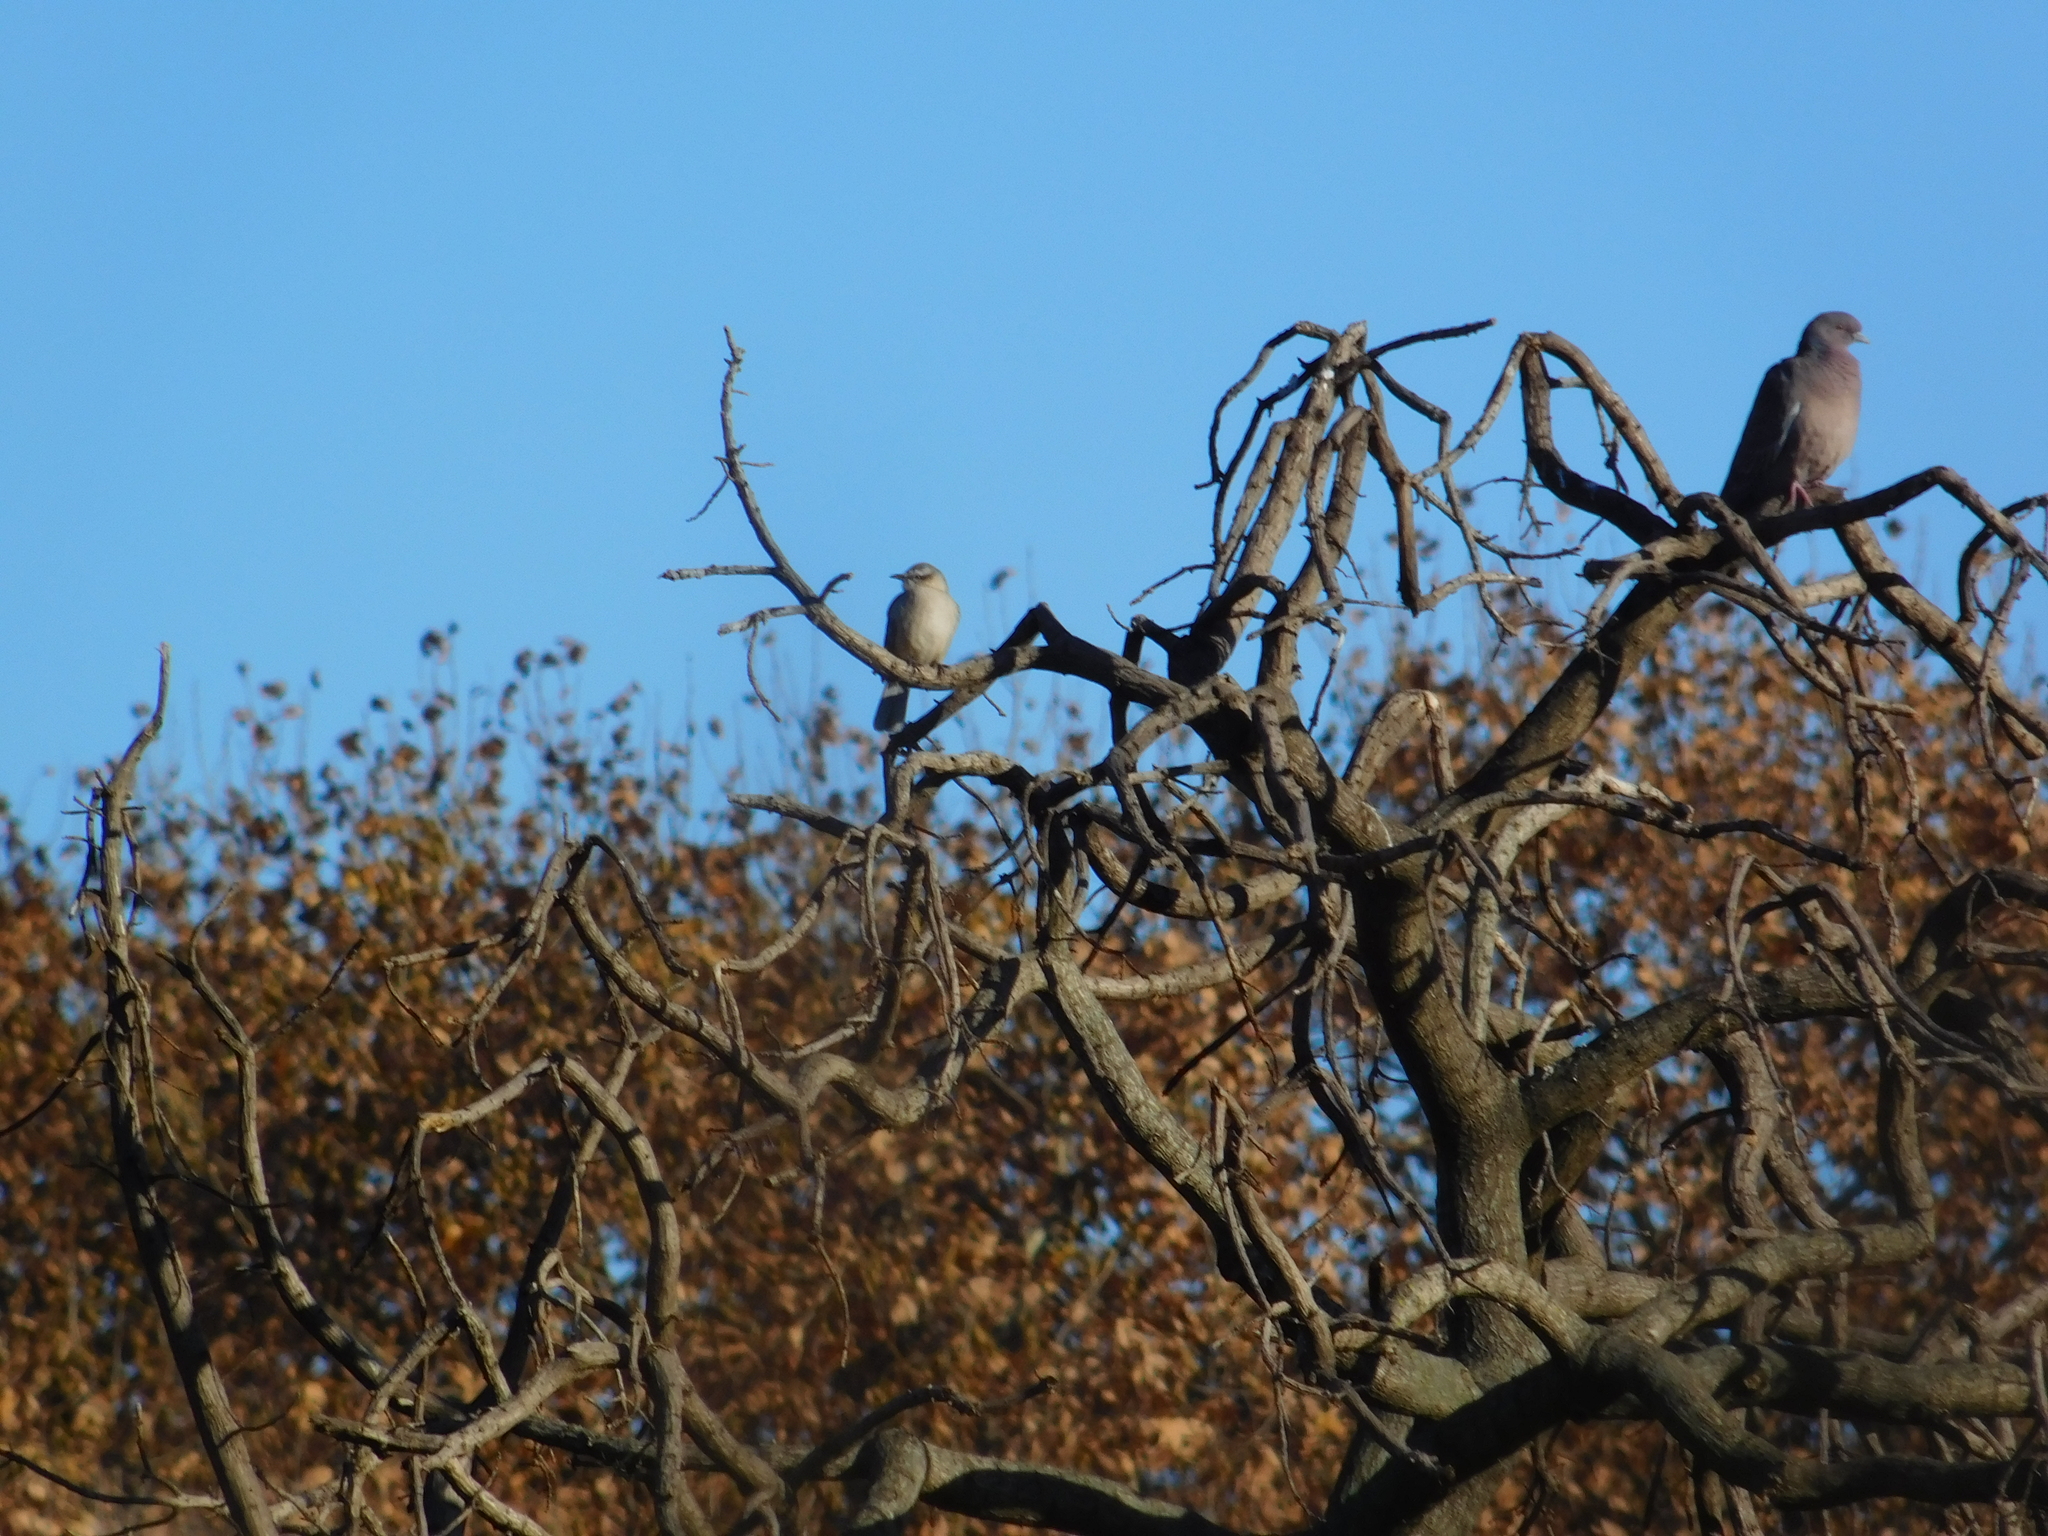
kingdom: Animalia
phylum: Chordata
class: Aves
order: Columbiformes
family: Columbidae
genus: Patagioenas
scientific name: Patagioenas picazuro
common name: Picazuro pigeon
